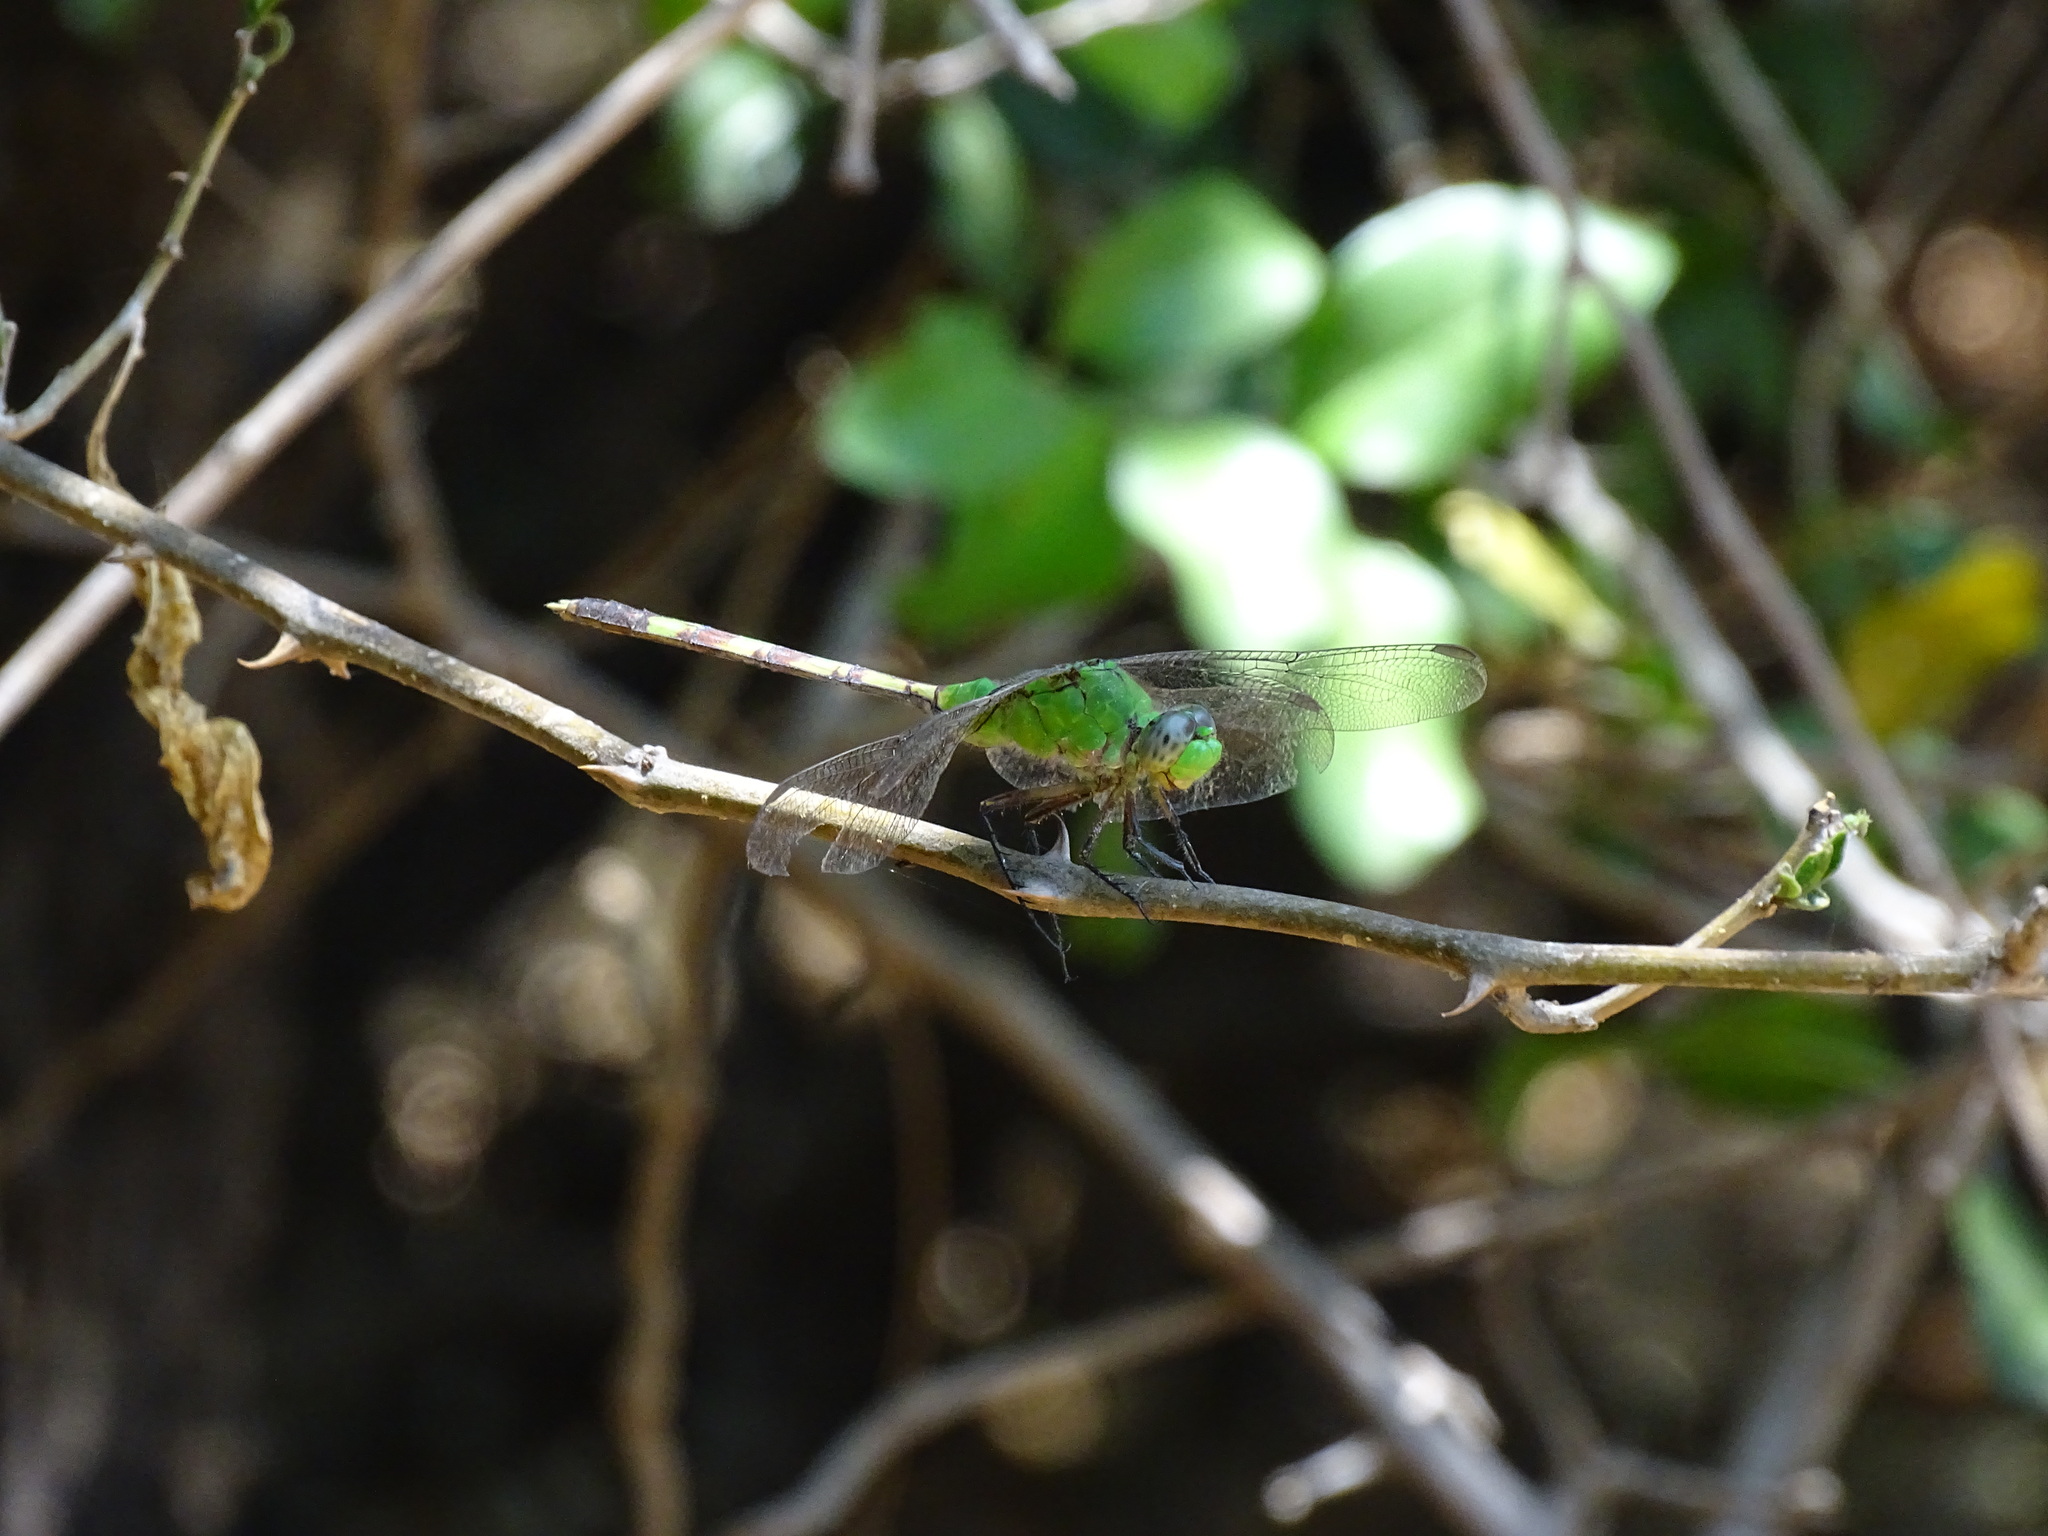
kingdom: Animalia
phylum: Arthropoda
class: Insecta
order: Odonata
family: Libellulidae
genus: Erythemis
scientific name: Erythemis vesiculosa
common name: Great pondhawk
